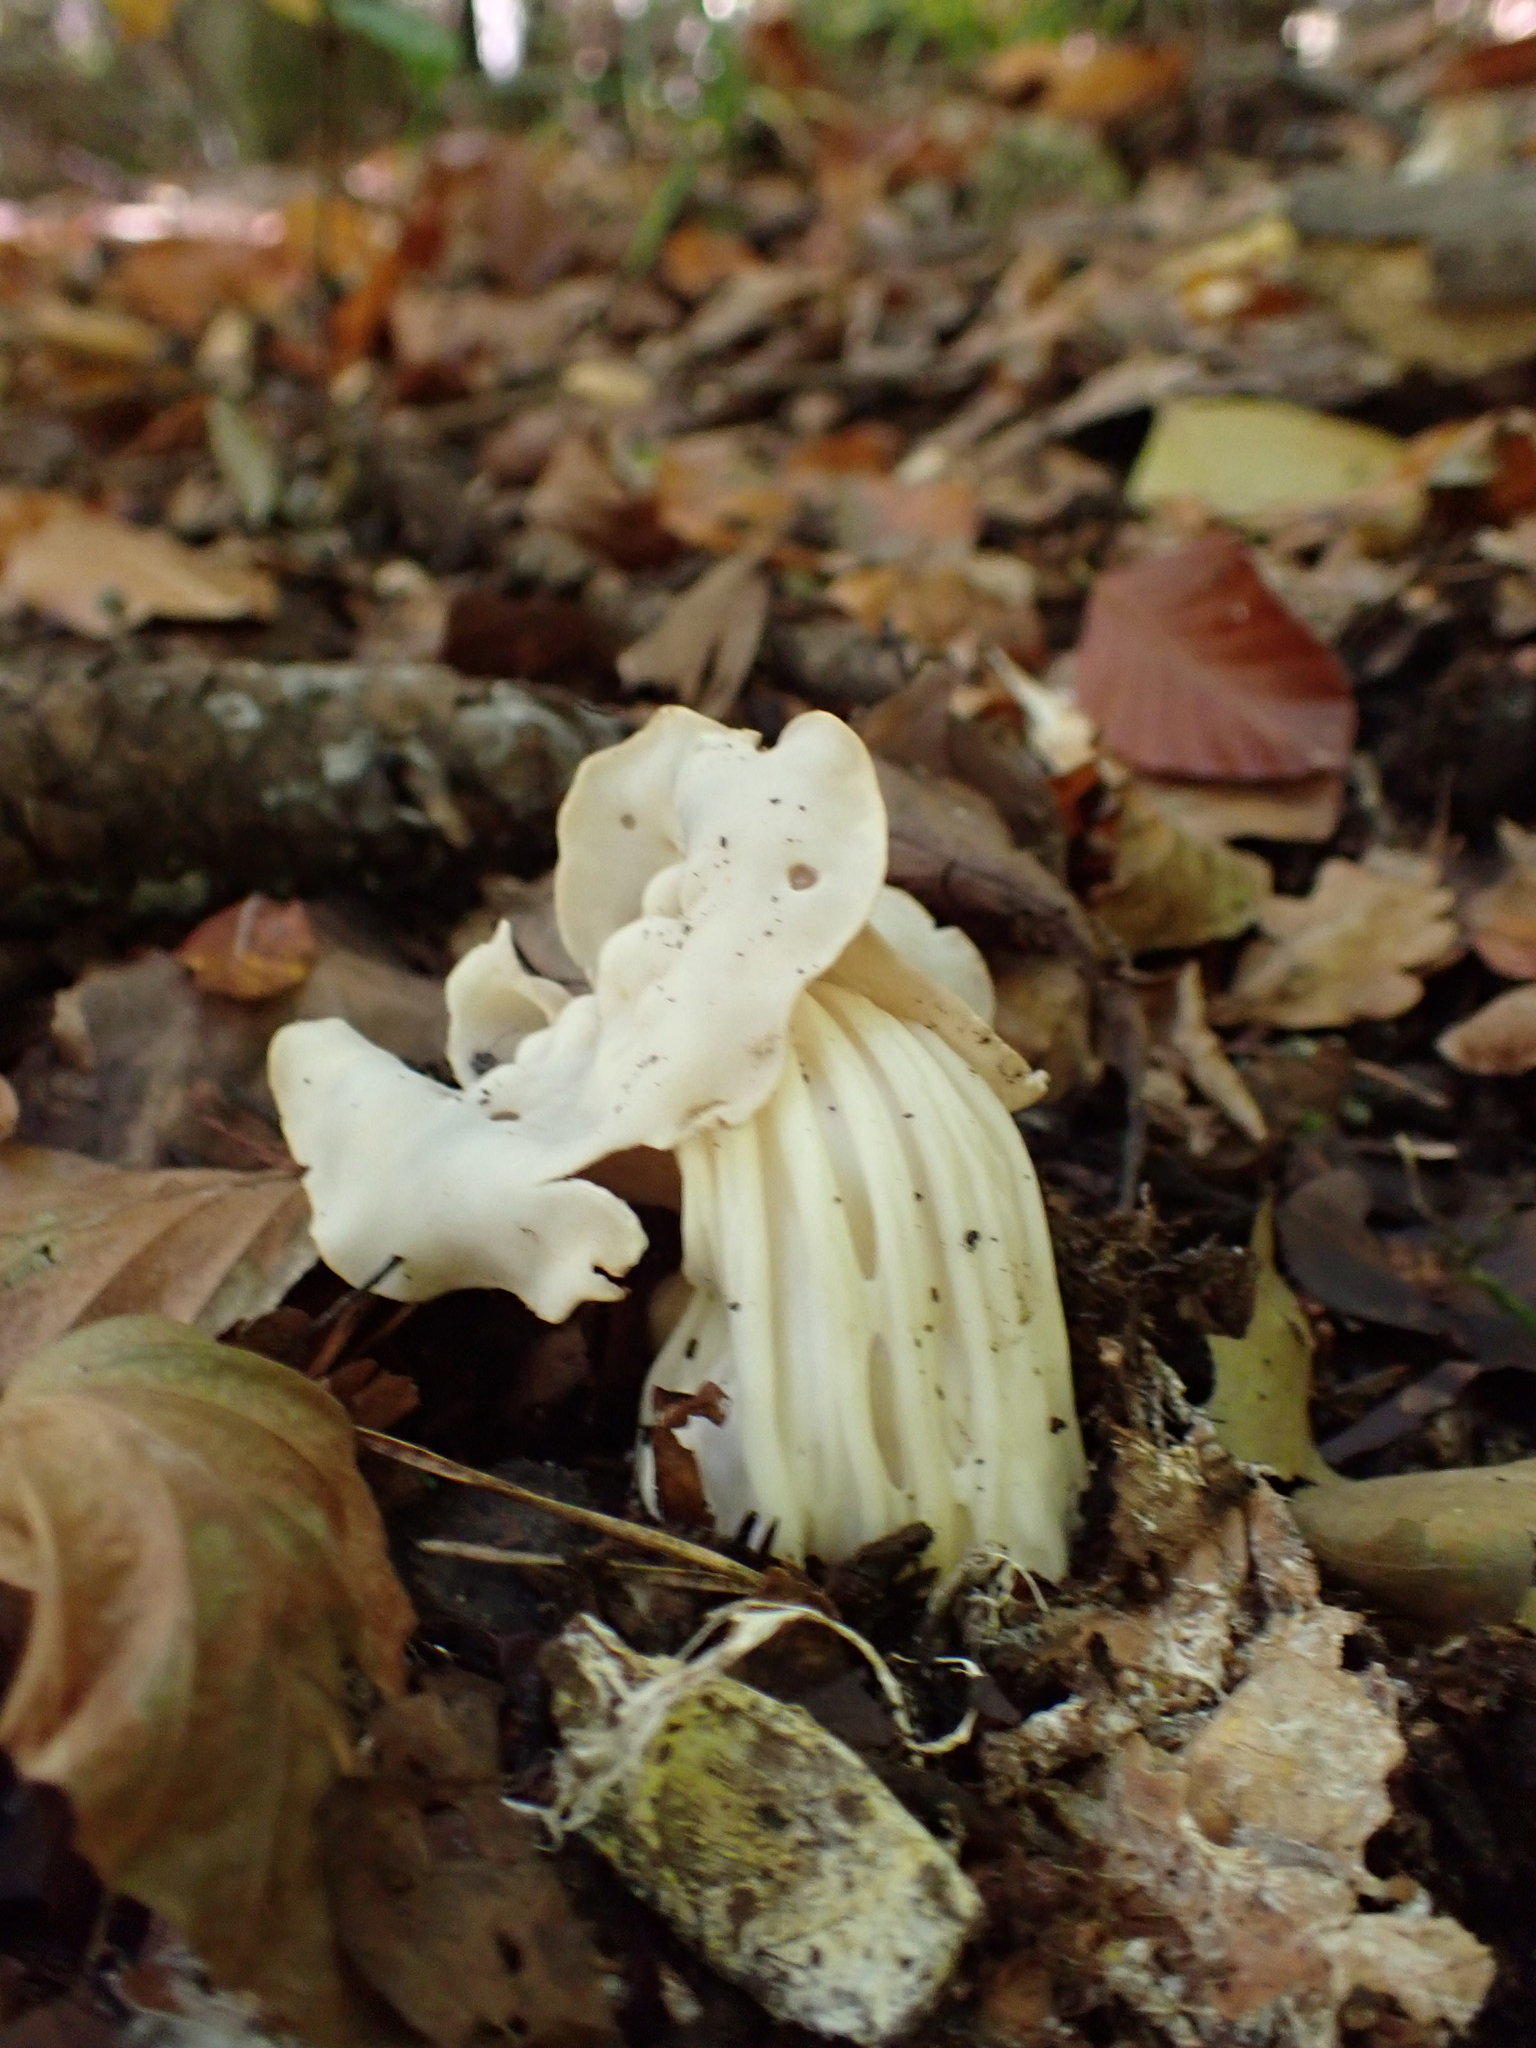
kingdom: Fungi
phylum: Ascomycota
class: Pezizomycetes
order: Pezizales
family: Helvellaceae
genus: Helvella
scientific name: Helvella crispa
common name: White saddle
